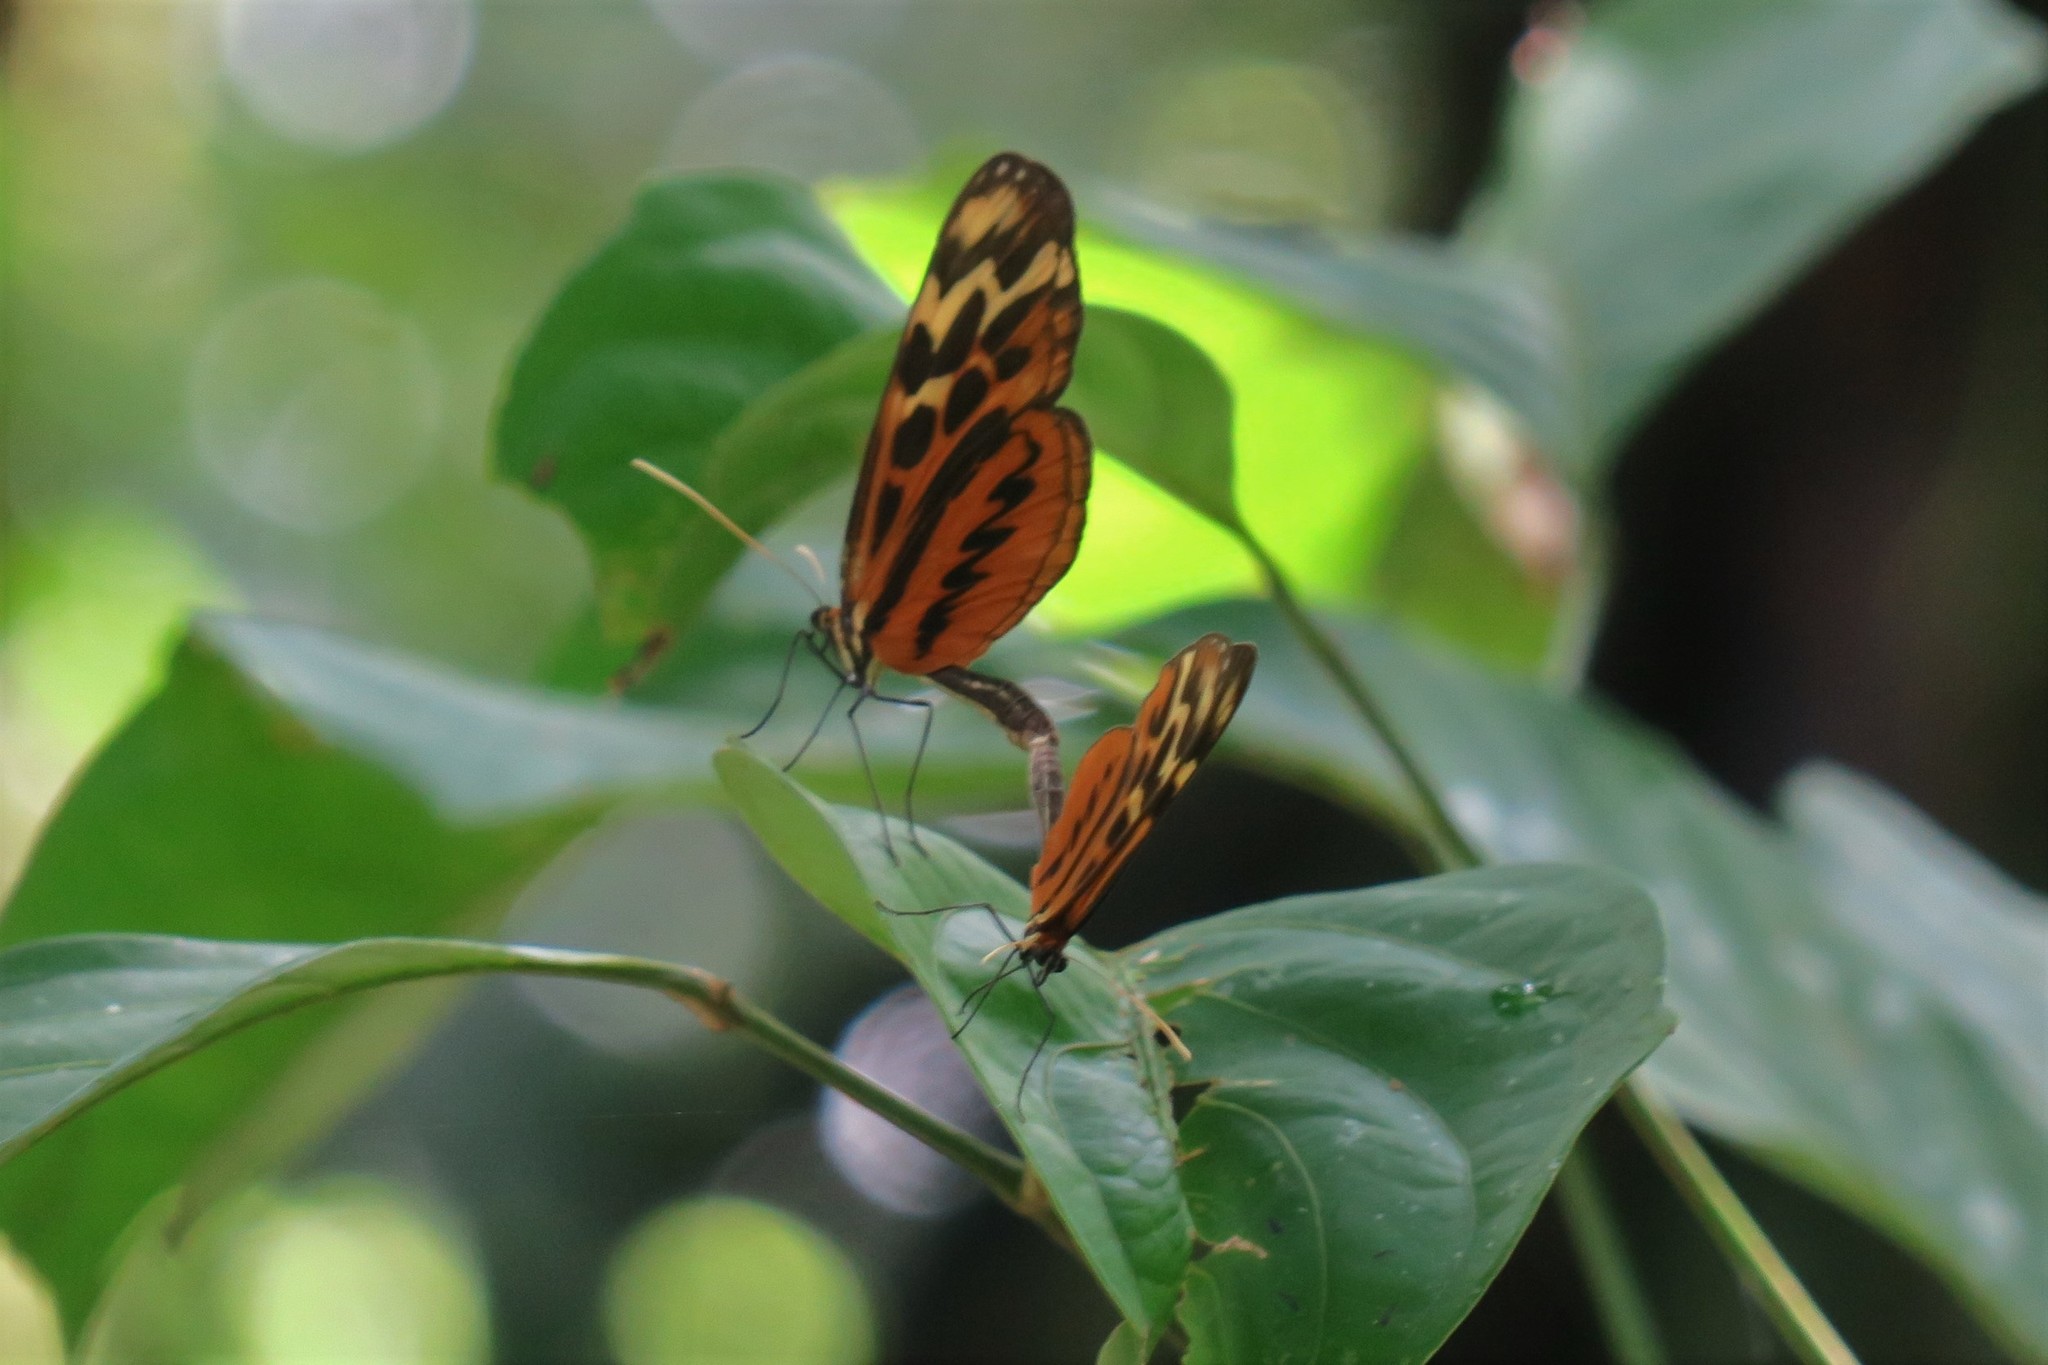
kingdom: Animalia
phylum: Arthropoda
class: Insecta
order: Lepidoptera
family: Nymphalidae
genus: Forbestra
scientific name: Forbestra olivencia
